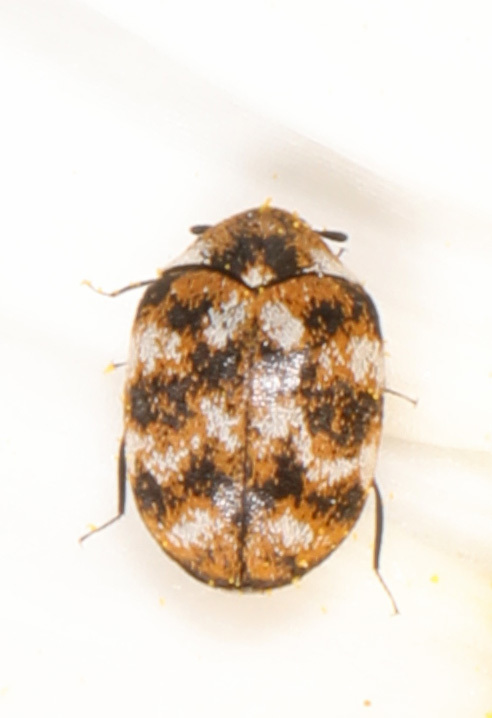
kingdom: Animalia
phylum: Arthropoda
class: Insecta
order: Coleoptera
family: Dermestidae
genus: Anthrenus
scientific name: Anthrenus verbasci
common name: Varied carpet beetle
